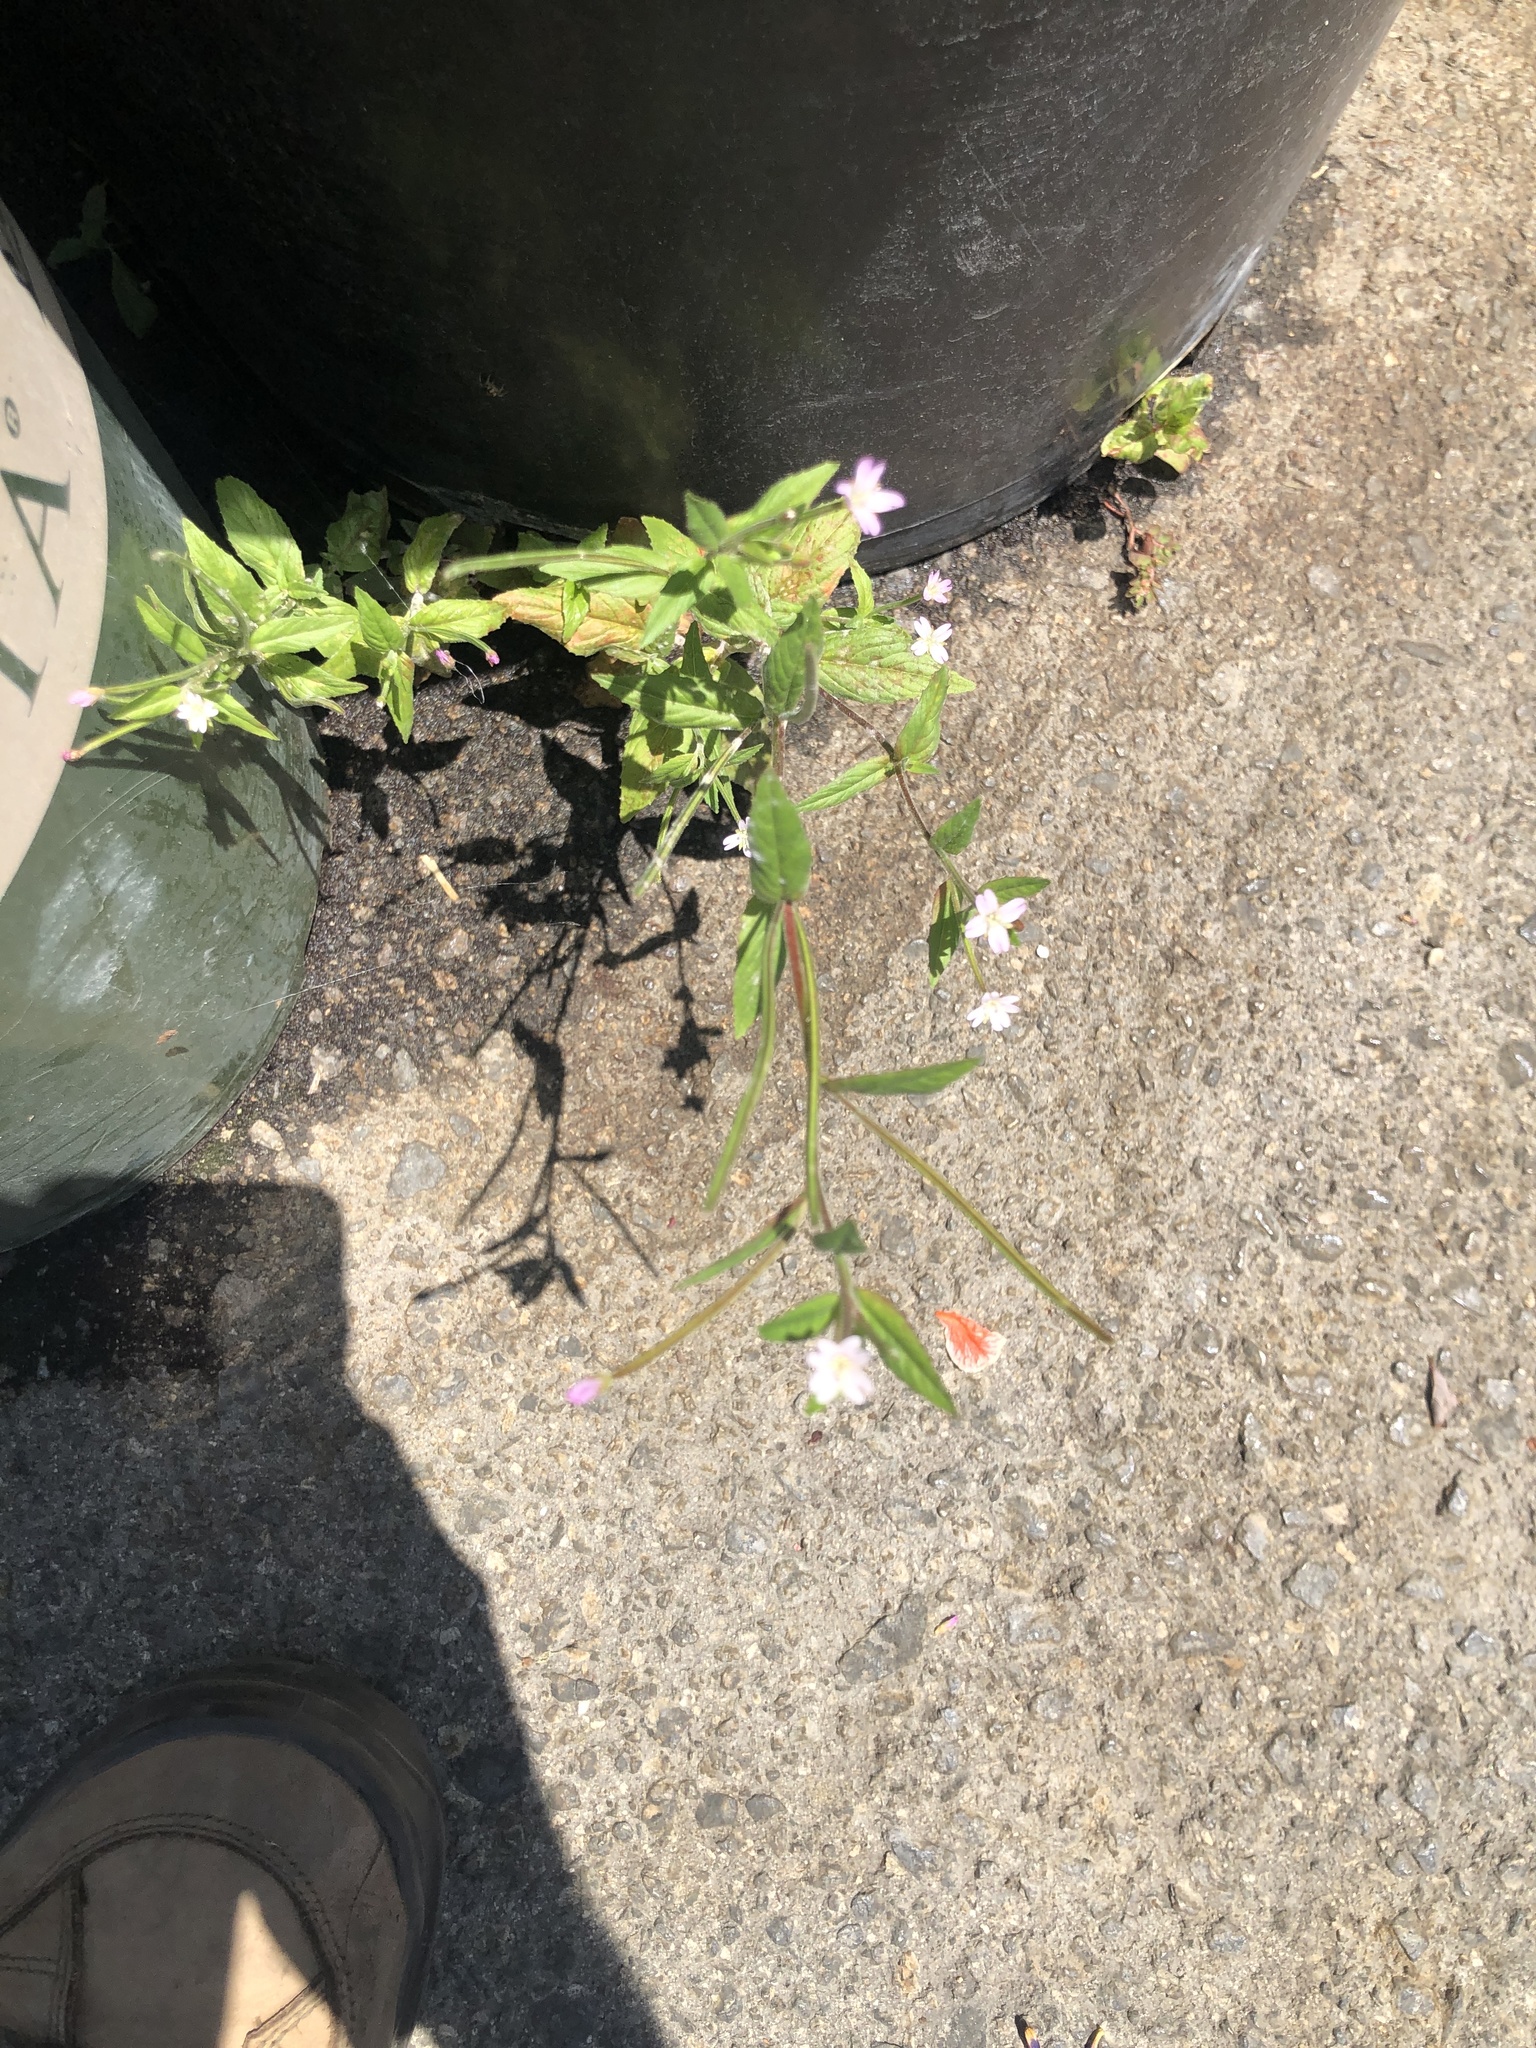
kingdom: Plantae
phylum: Tracheophyta
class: Magnoliopsida
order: Myrtales
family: Onagraceae
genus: Epilobium
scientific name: Epilobium ciliatum
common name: American willowherb
